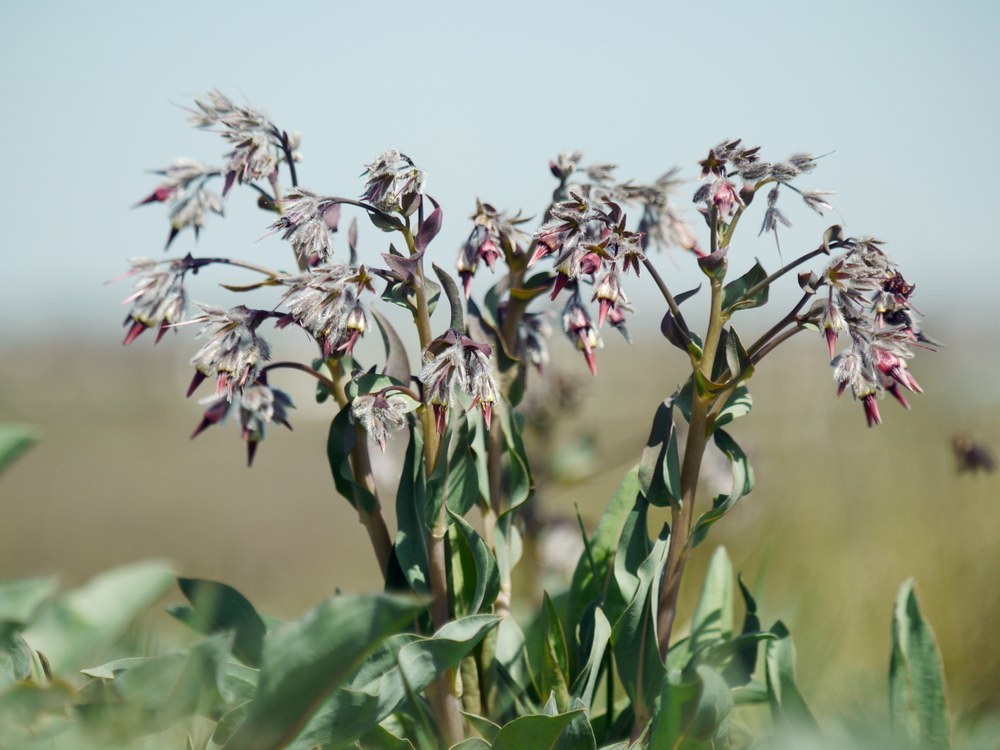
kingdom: Plantae
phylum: Tracheophyta
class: Magnoliopsida
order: Boraginales
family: Boraginaceae
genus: Rindera
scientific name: Rindera tetraspis
